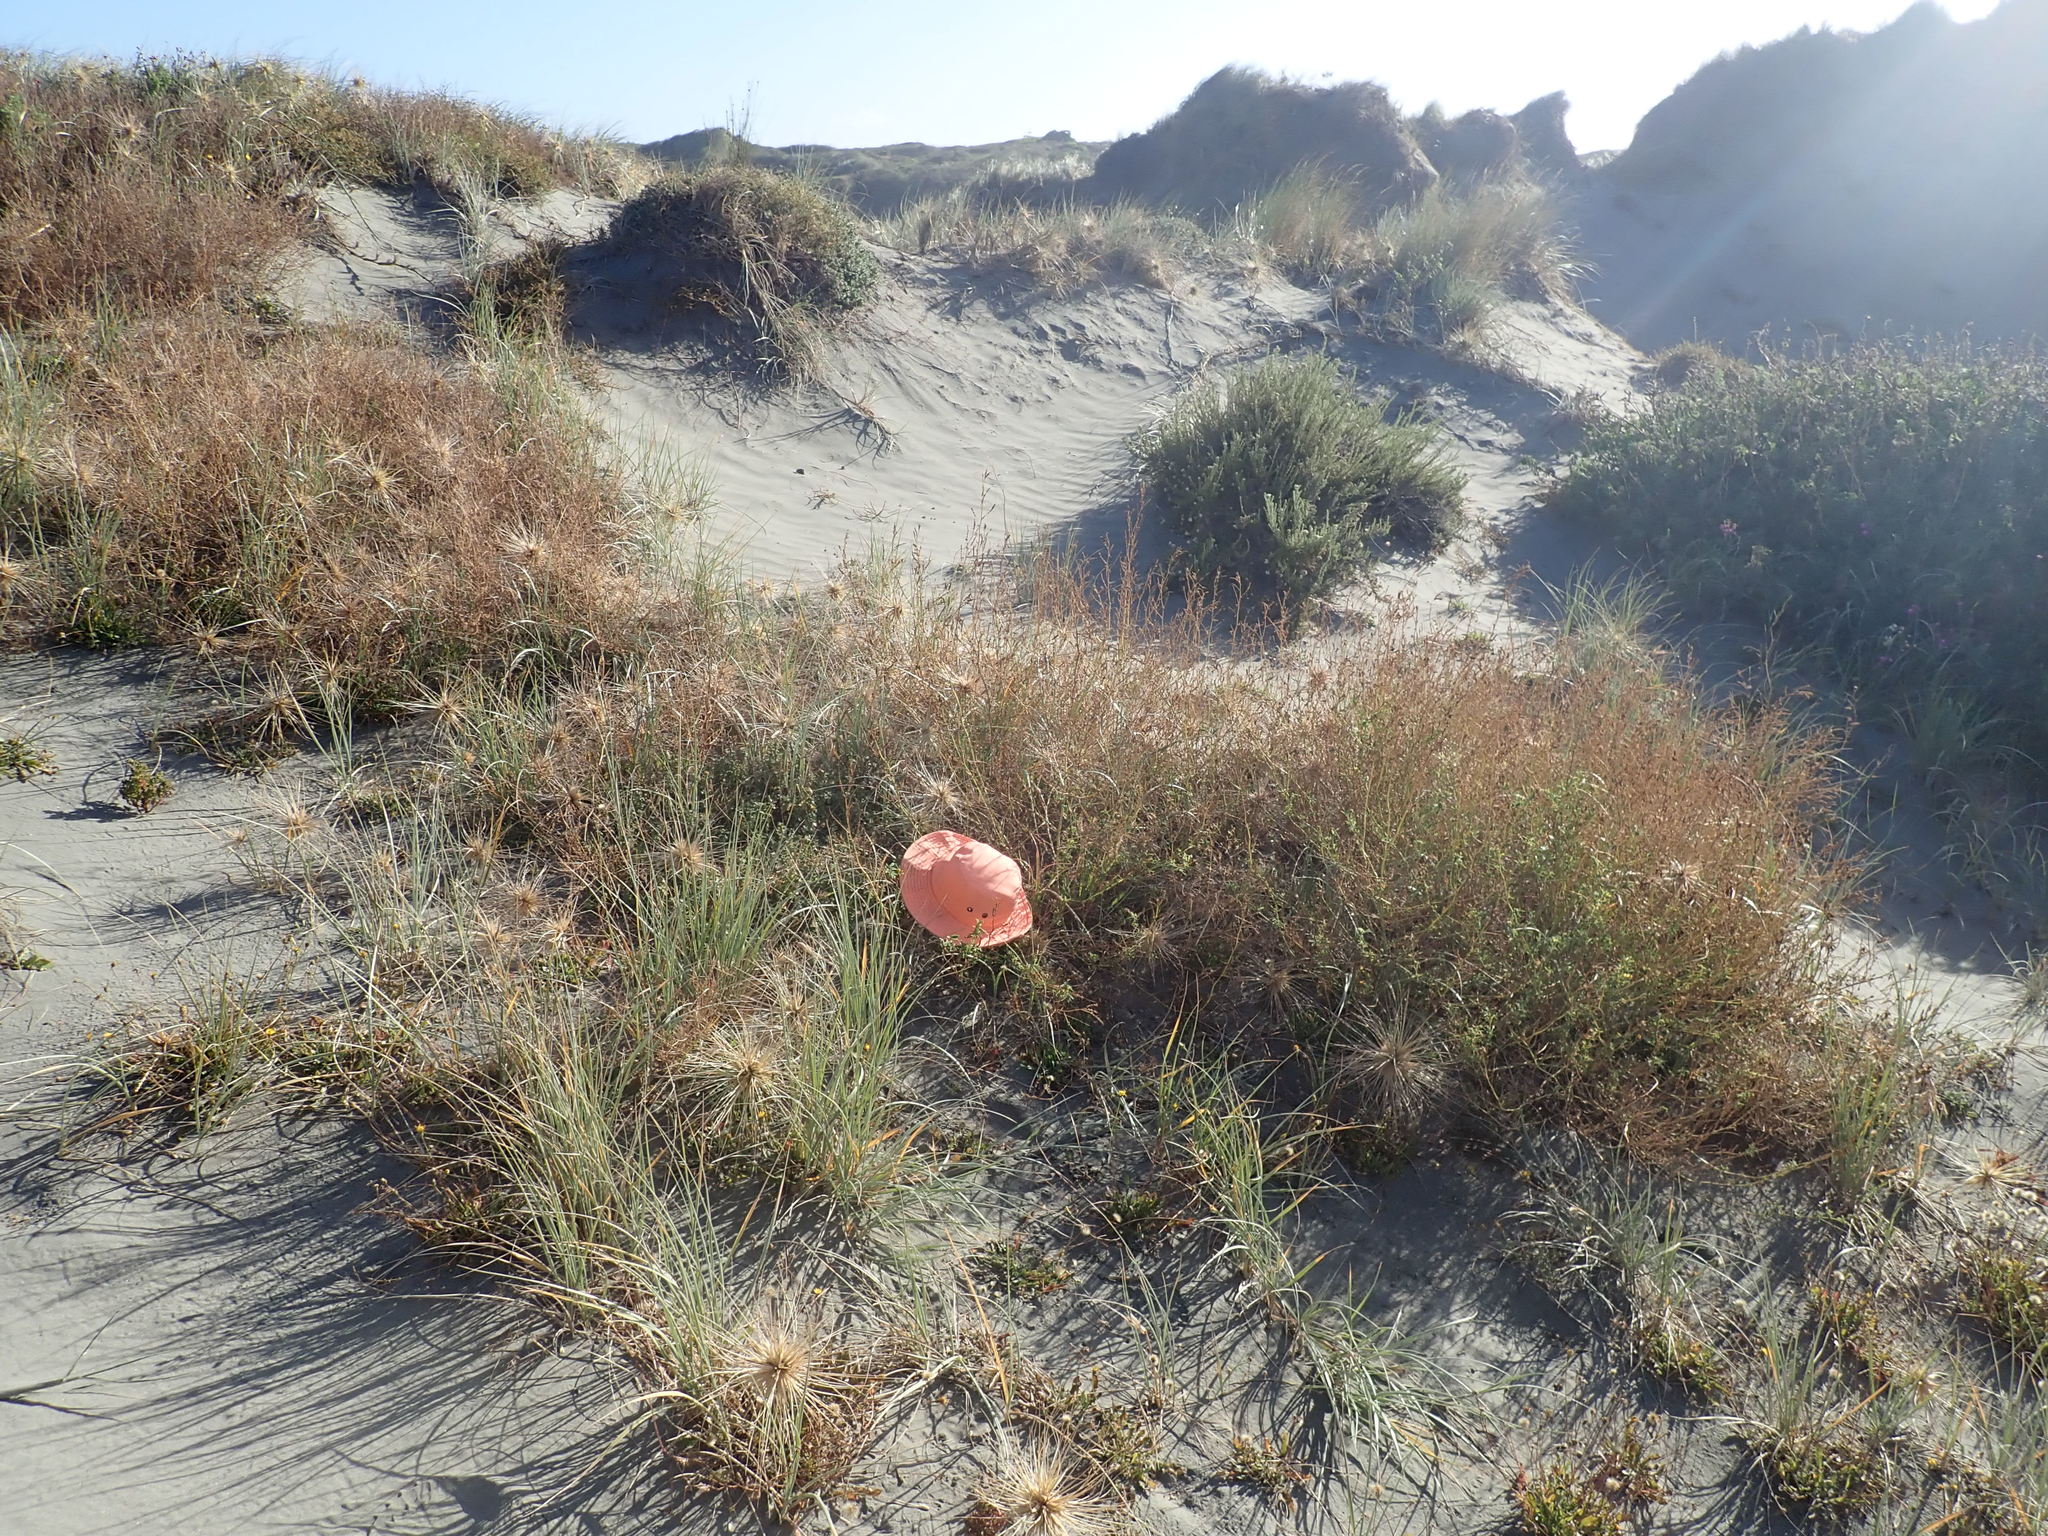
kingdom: Plantae
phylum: Tracheophyta
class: Magnoliopsida
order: Fabales
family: Fabaceae
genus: Melilotus
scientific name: Melilotus indicus
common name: Small melilot
